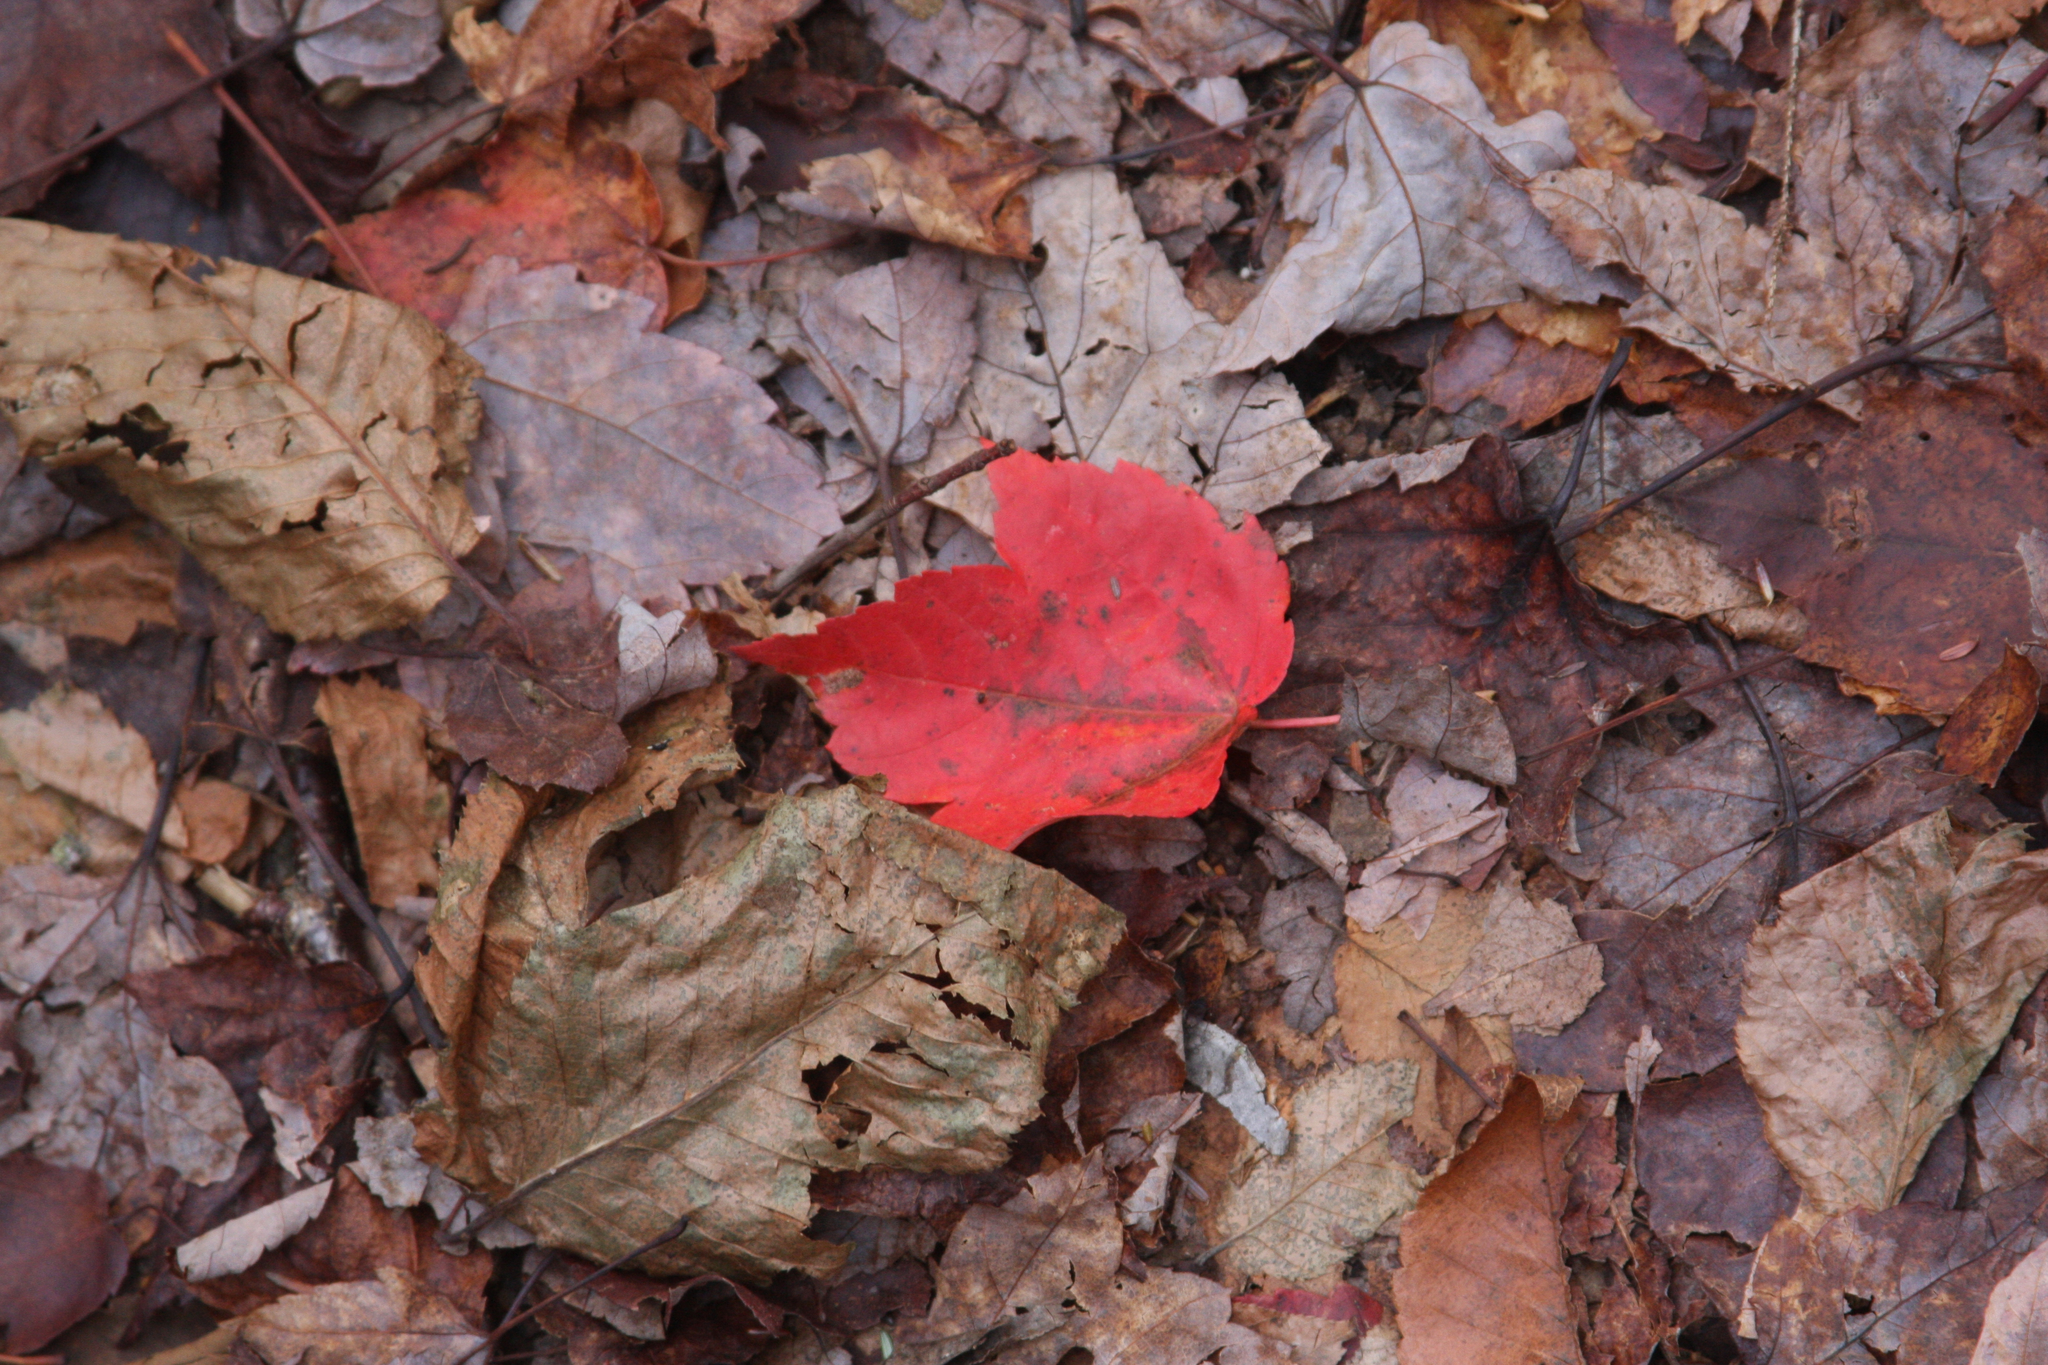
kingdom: Plantae
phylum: Tracheophyta
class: Magnoliopsida
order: Sapindales
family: Sapindaceae
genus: Acer
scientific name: Acer rubrum
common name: Red maple
